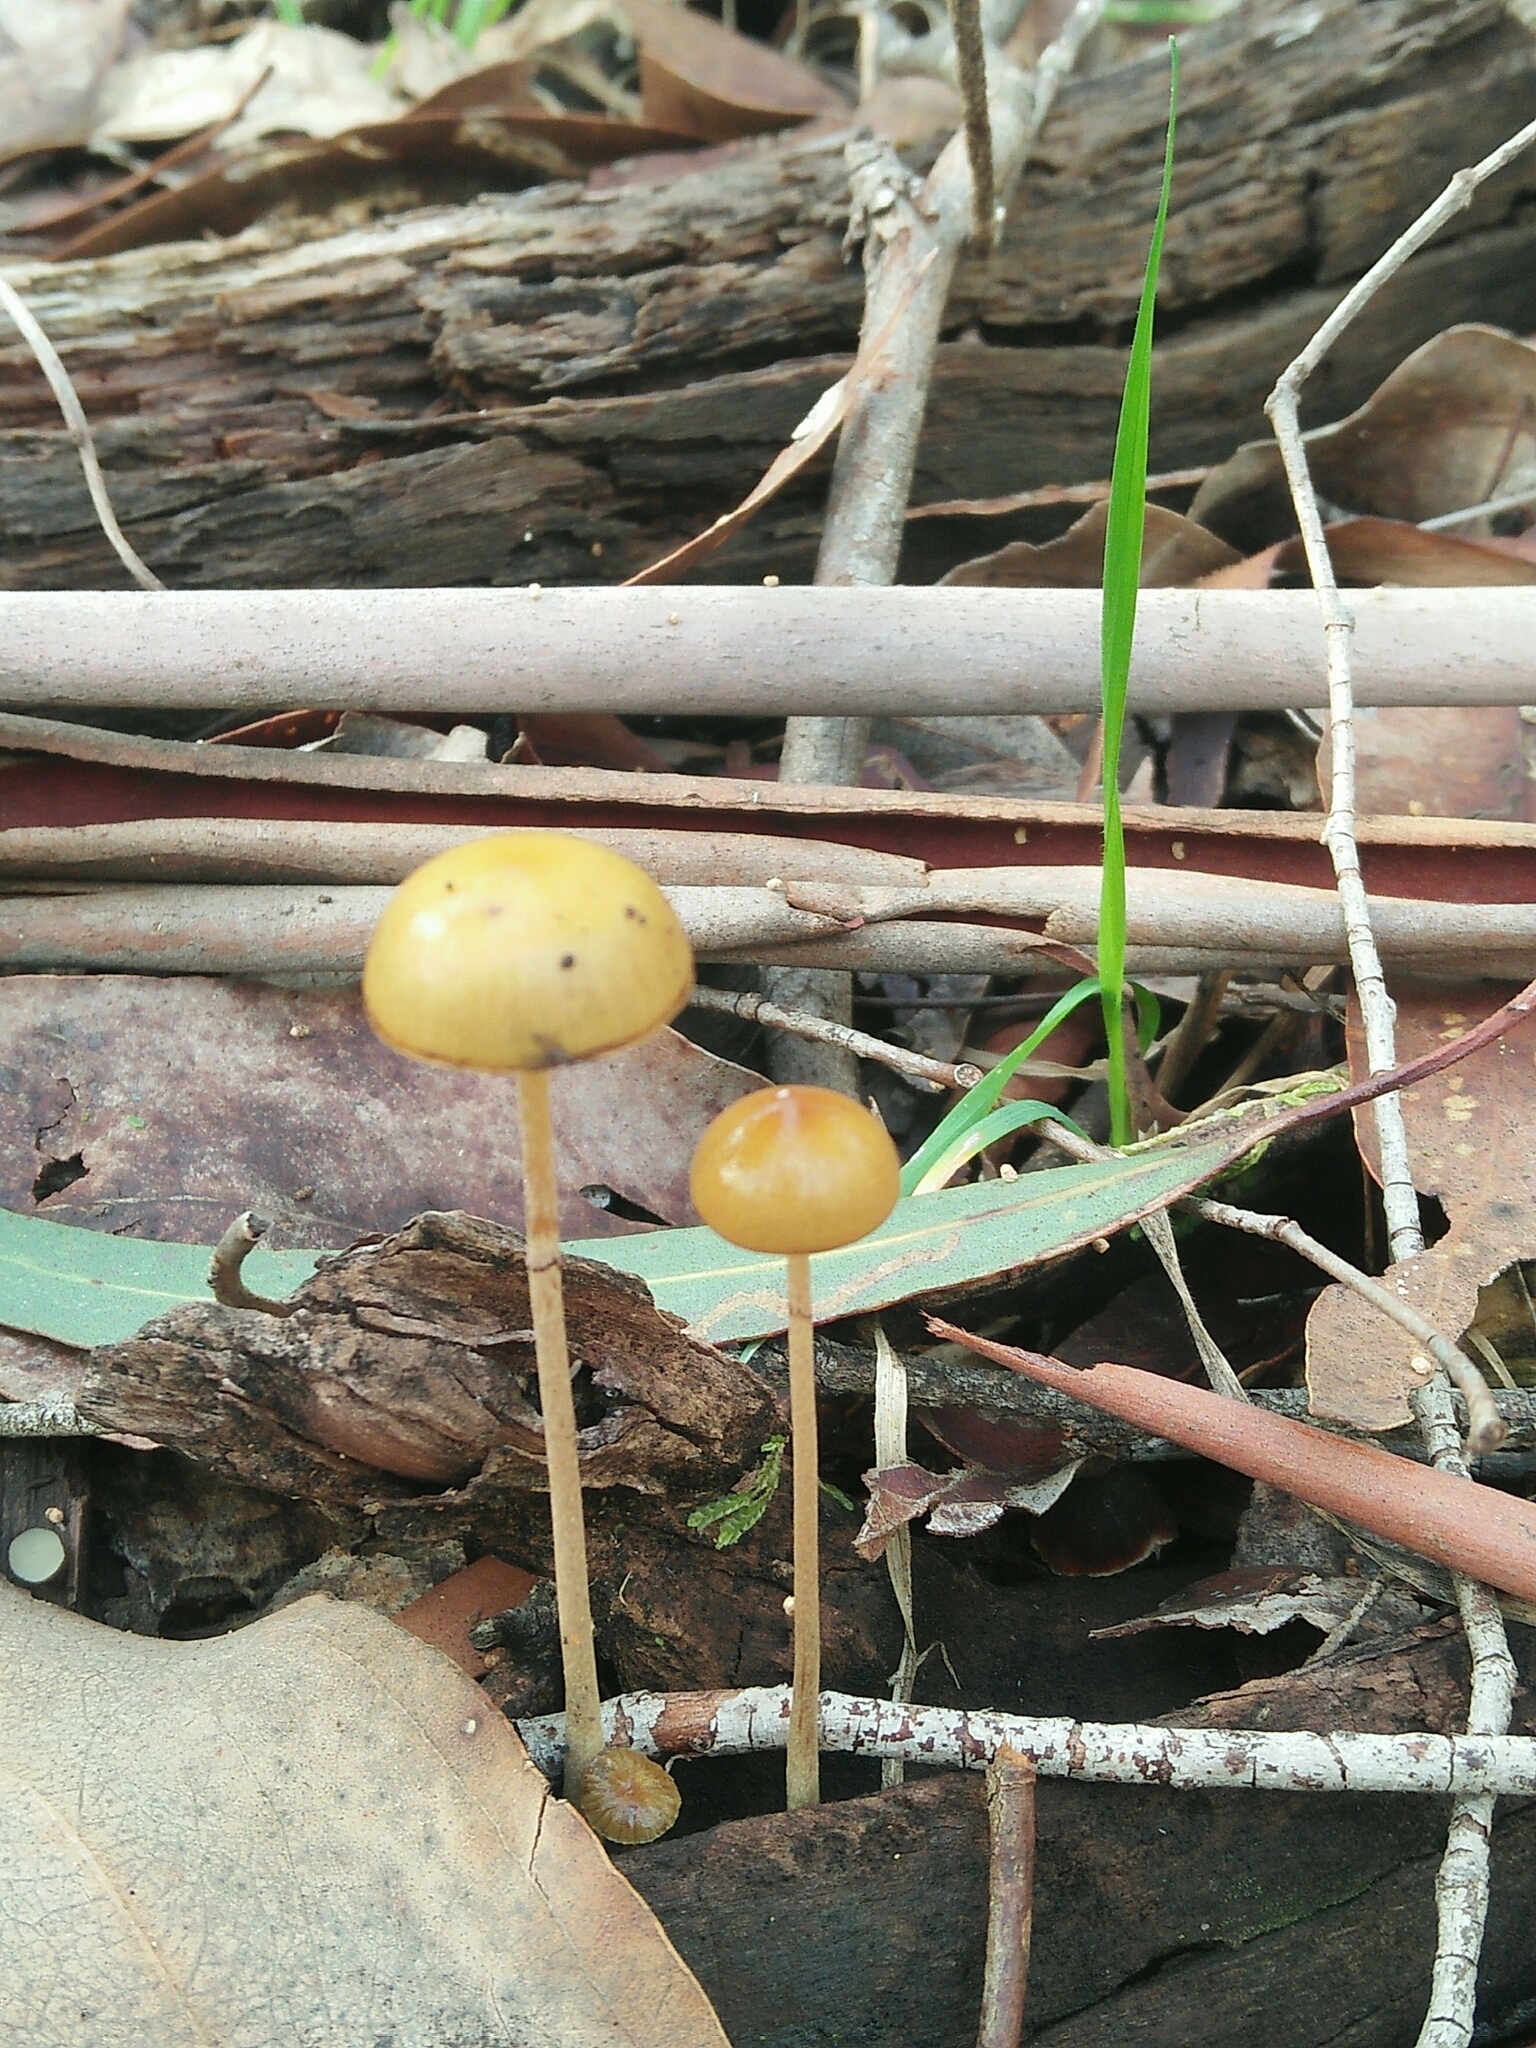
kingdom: Fungi
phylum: Basidiomycota
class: Agaricomycetes
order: Agaricales
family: Strophariaceae
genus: Protostropharia
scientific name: Protostropharia semiglobata
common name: Dung roundhead
